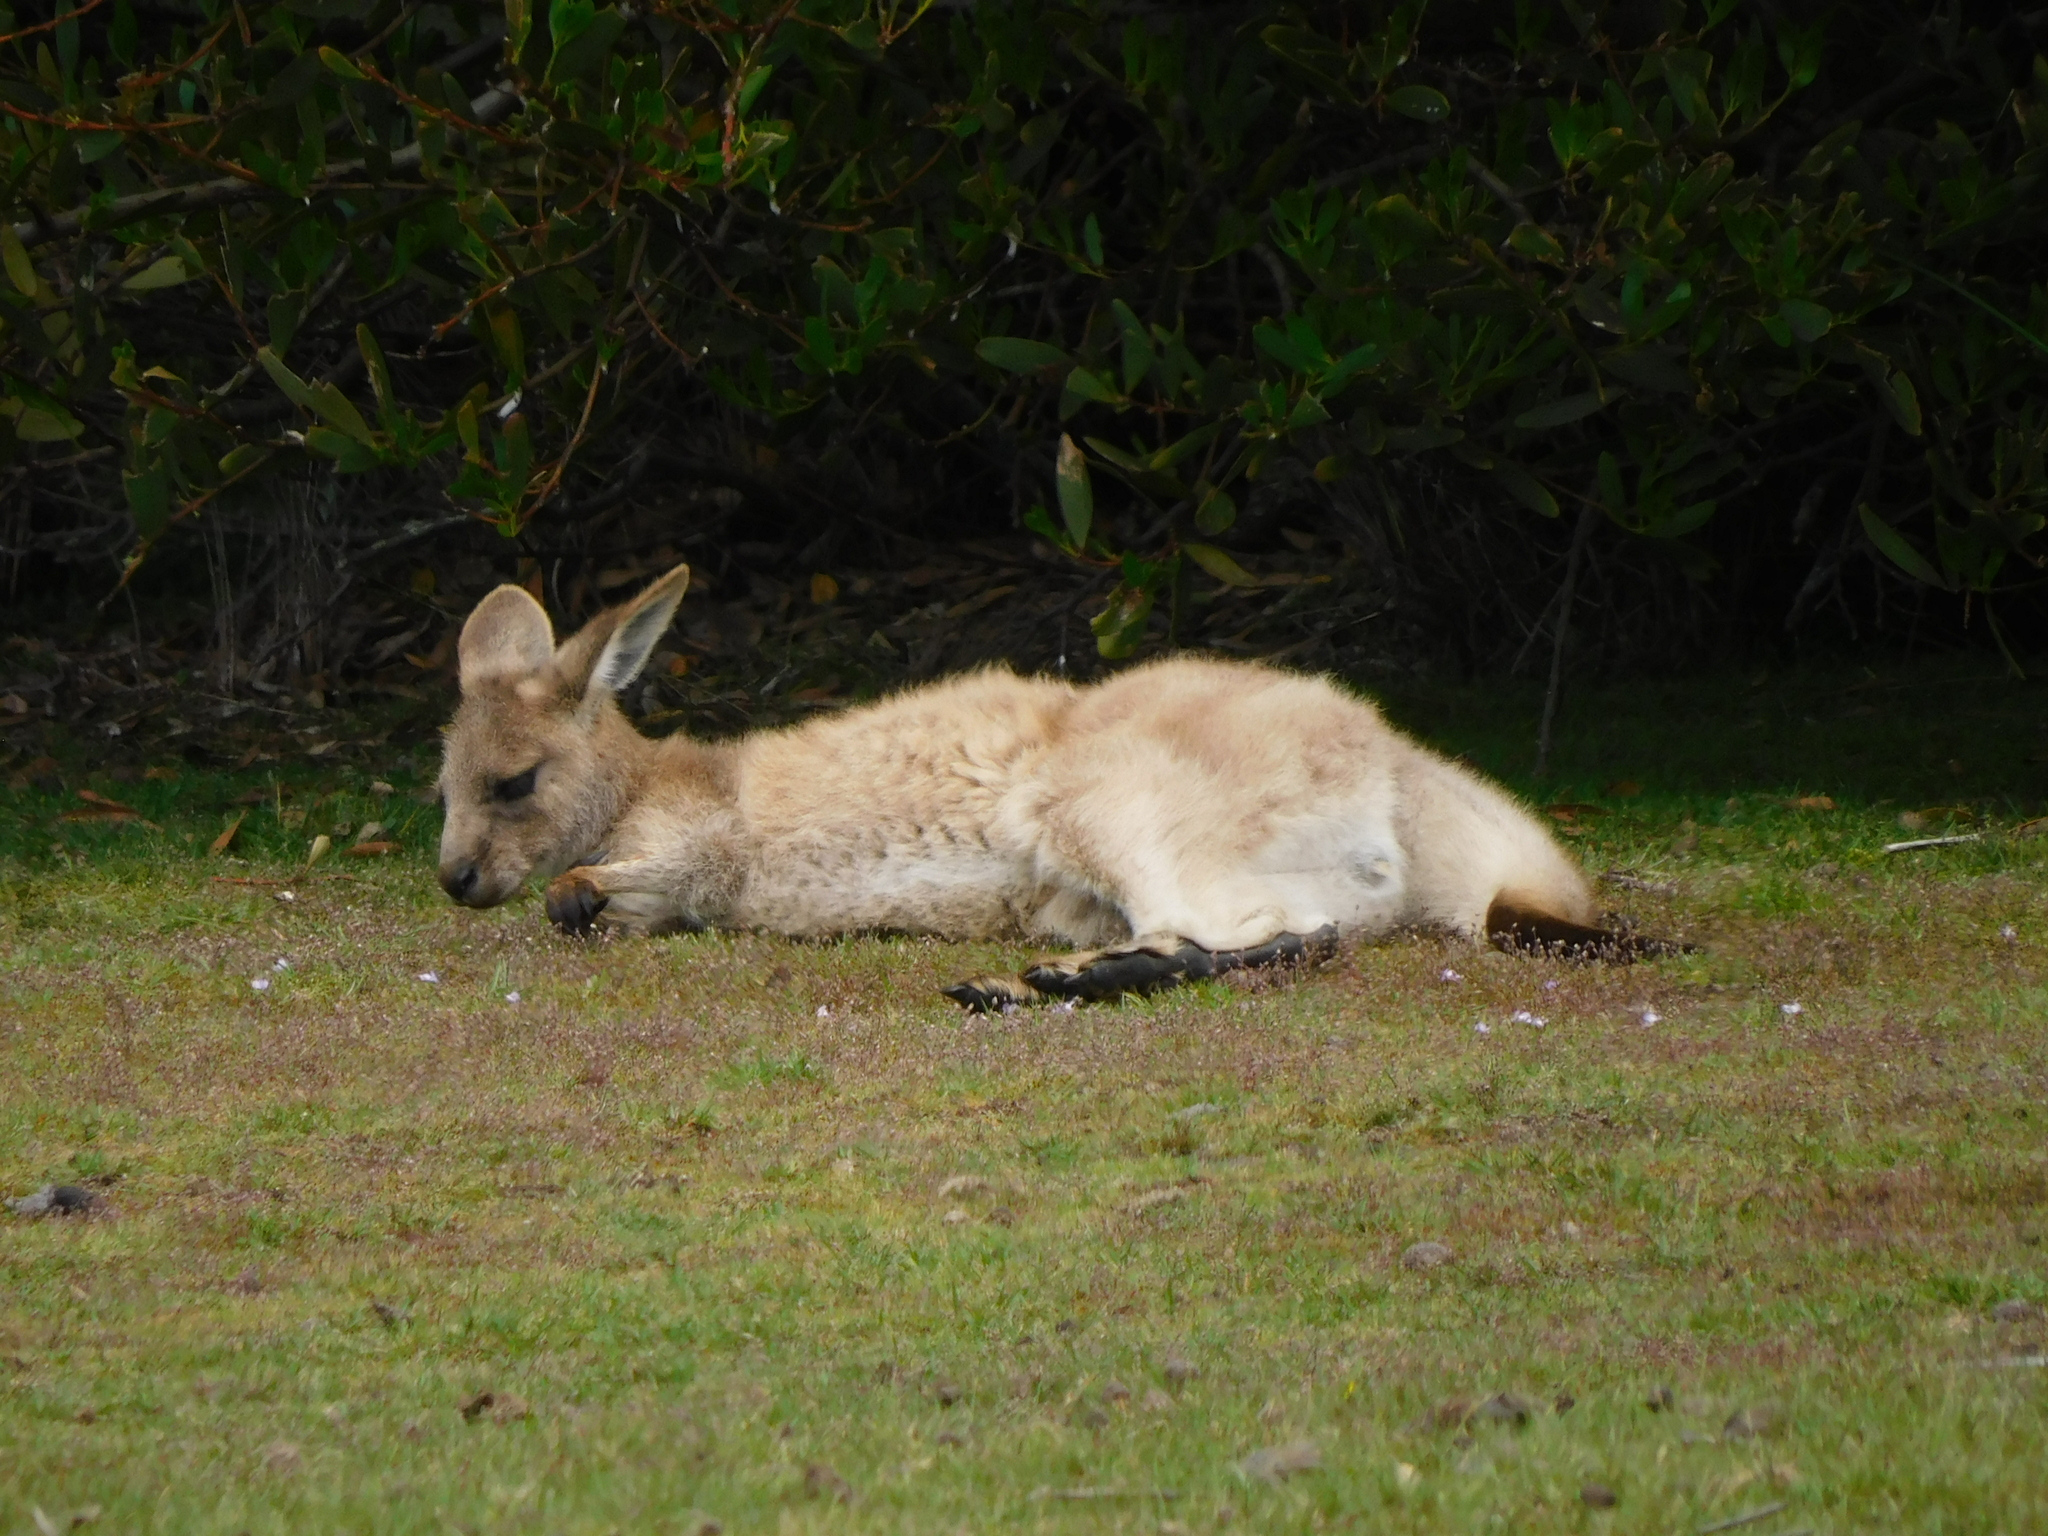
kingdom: Animalia
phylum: Chordata
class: Mammalia
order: Diprotodontia
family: Macropodidae
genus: Macropus
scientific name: Macropus giganteus
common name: Eastern grey kangaroo
